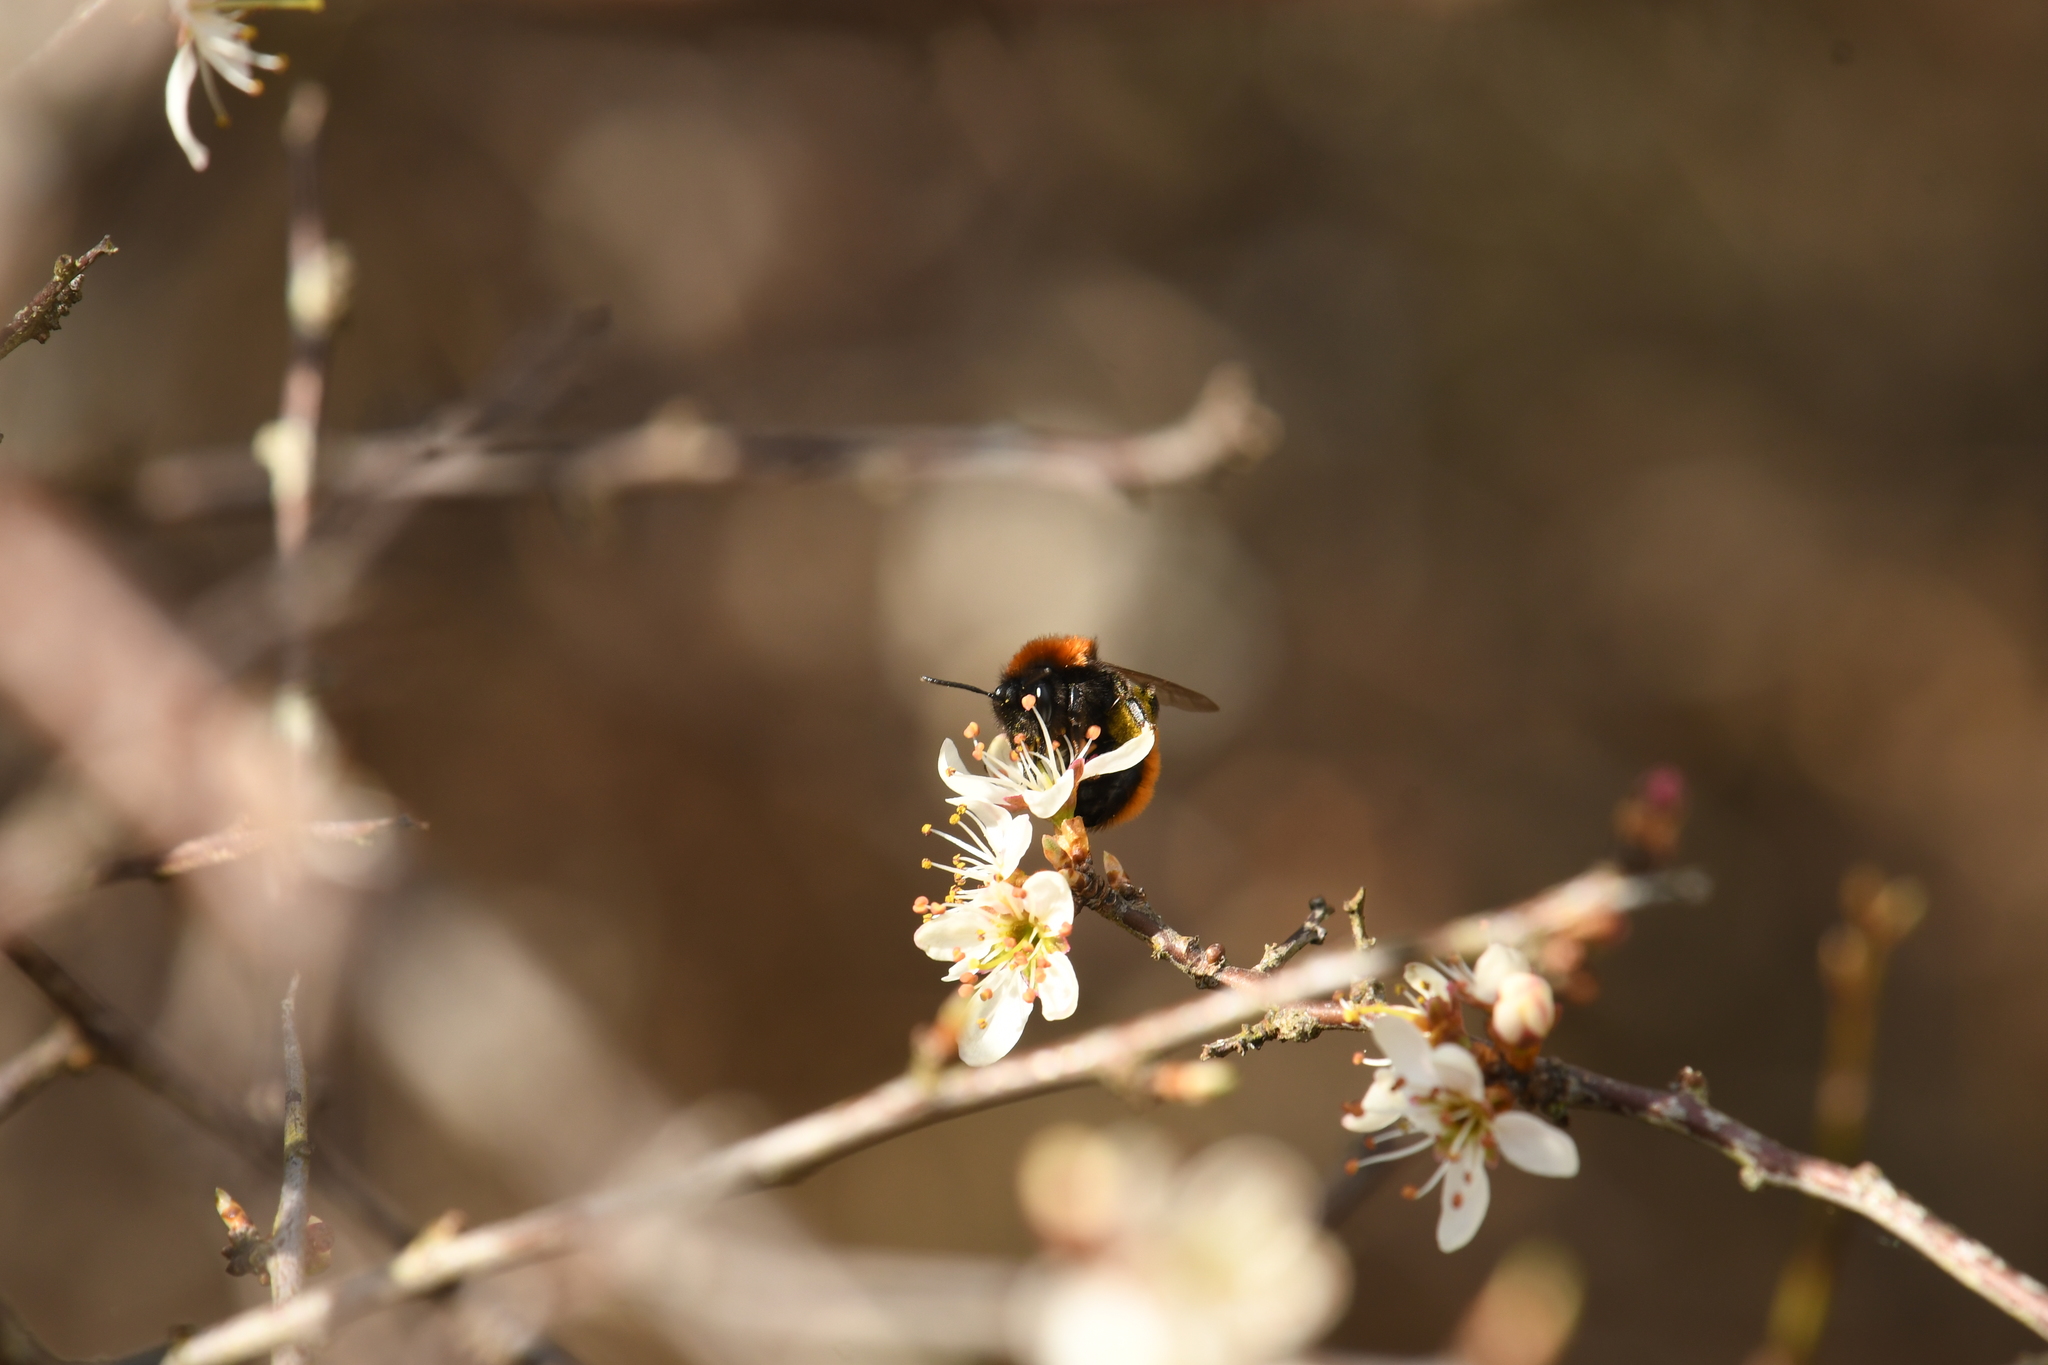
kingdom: Animalia
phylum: Arthropoda
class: Insecta
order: Hymenoptera
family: Andrenidae
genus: Andrena
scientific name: Andrena fulva
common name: Tawny mining bee
